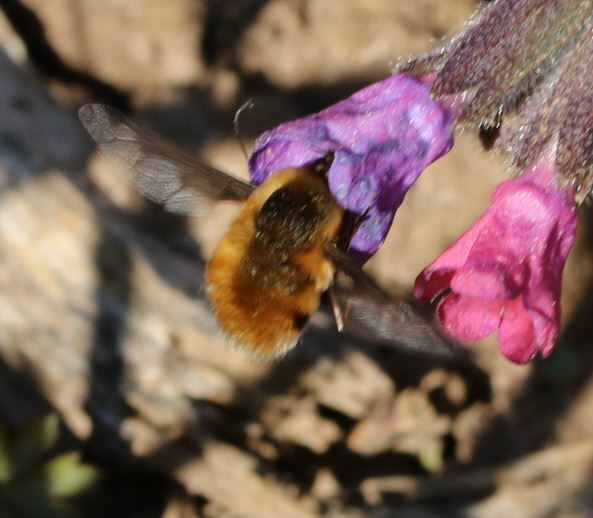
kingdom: Animalia
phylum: Arthropoda
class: Insecta
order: Diptera
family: Bombyliidae
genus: Bombylius
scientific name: Bombylius major
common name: Bee fly
